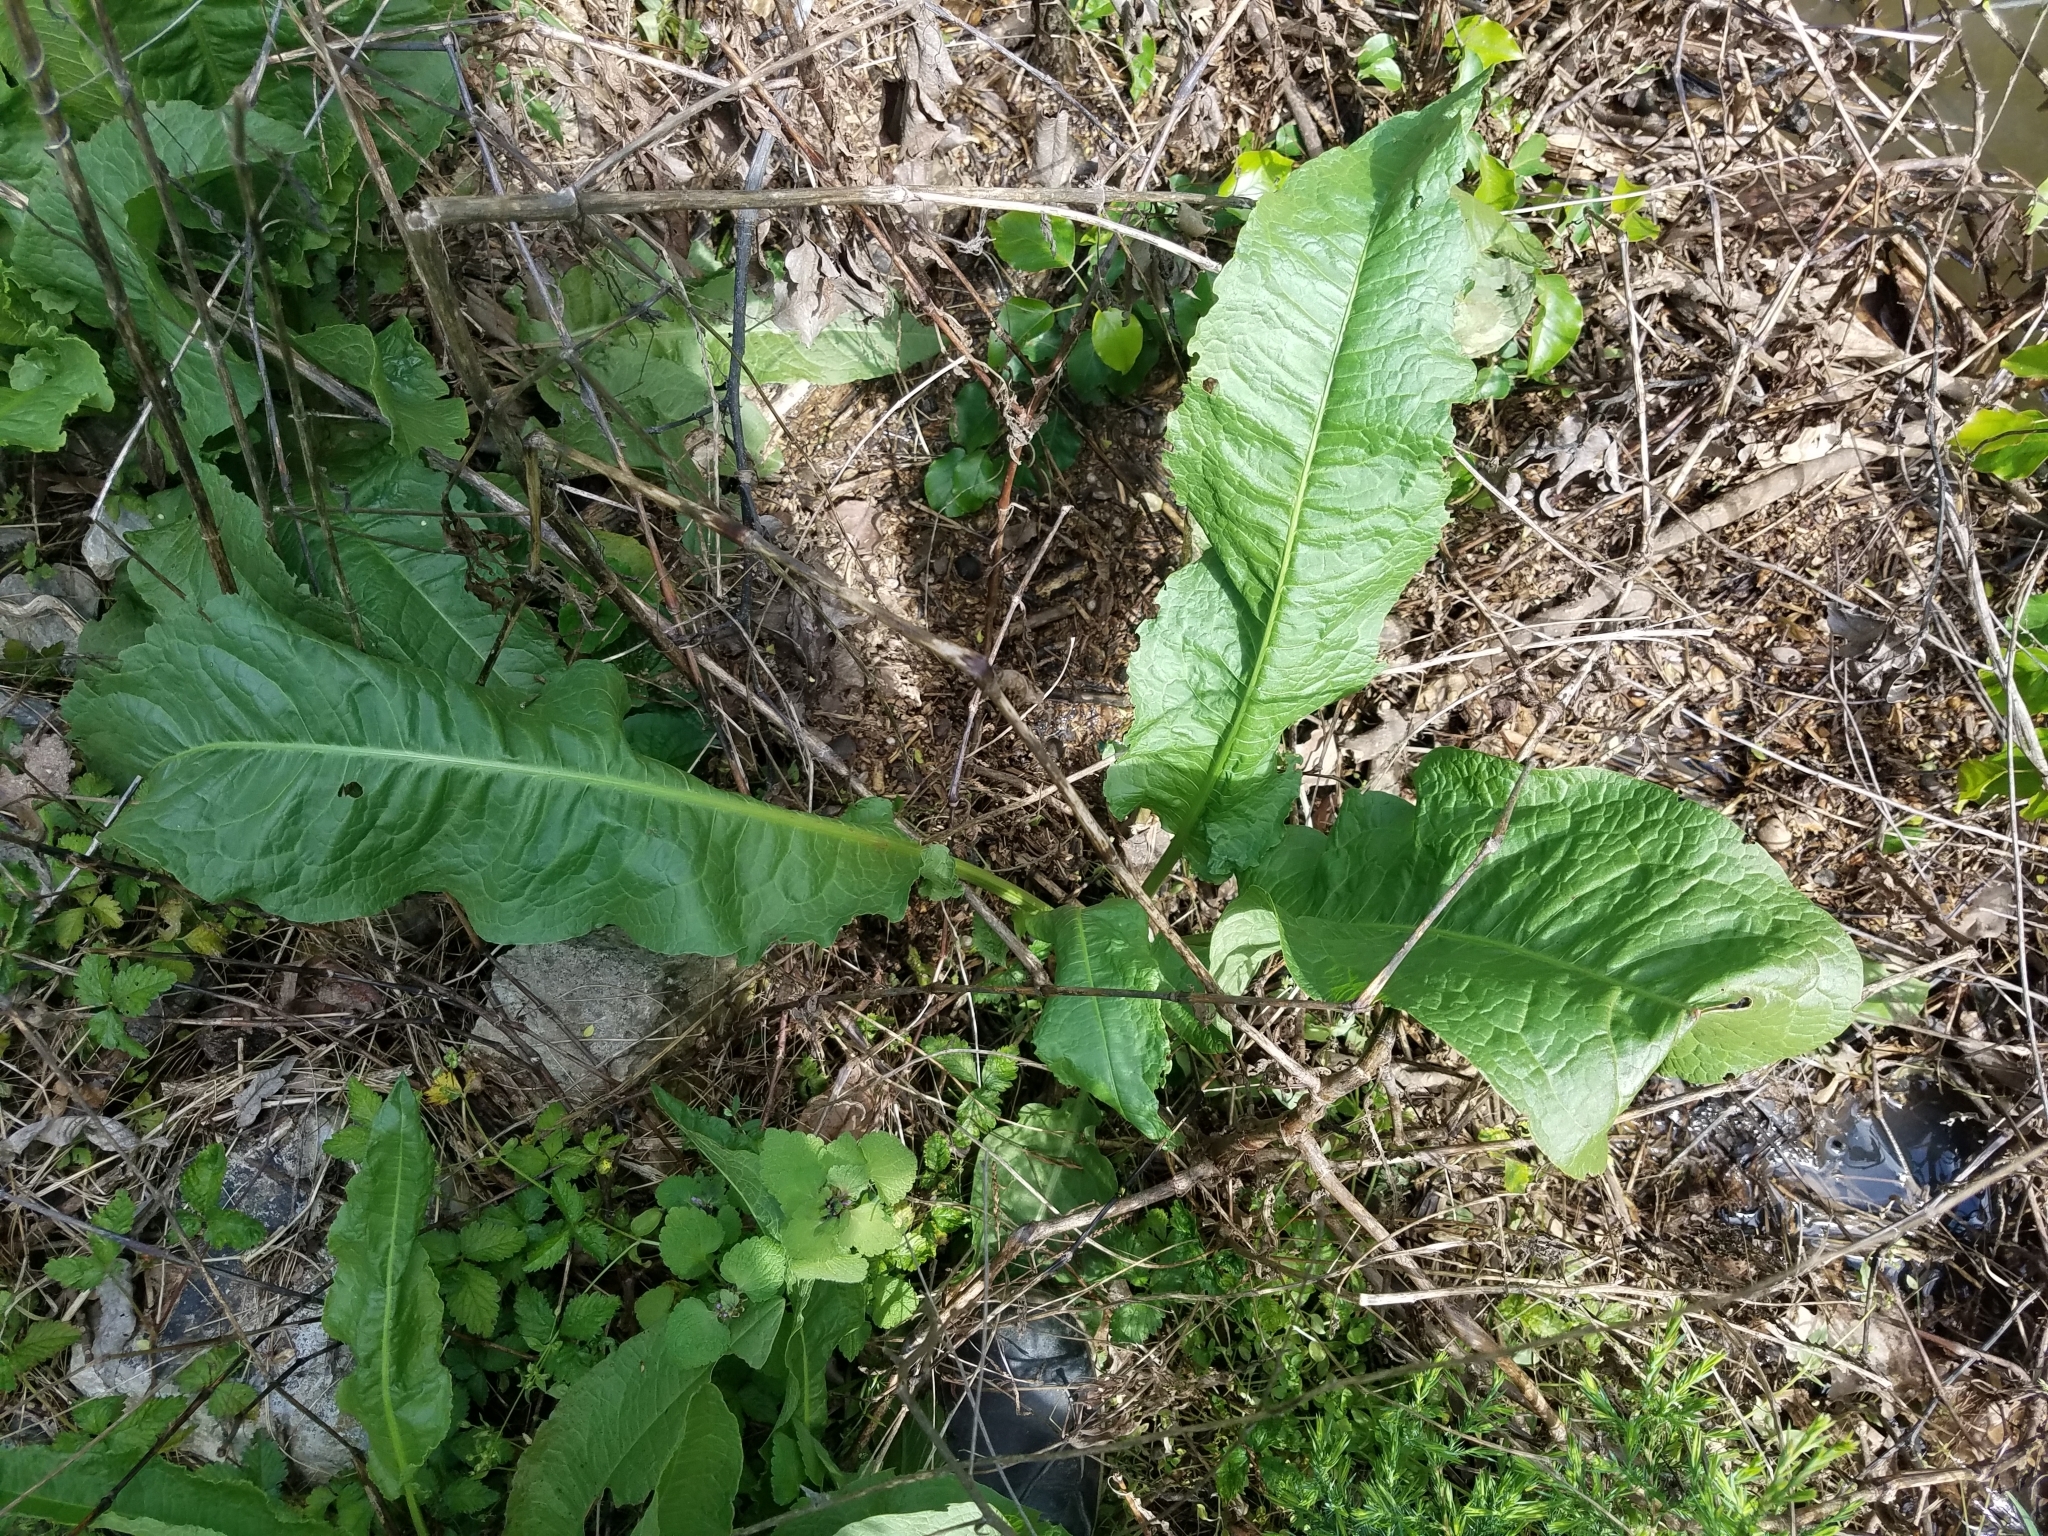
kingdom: Plantae
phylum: Tracheophyta
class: Magnoliopsida
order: Caryophyllales
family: Polygonaceae
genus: Rumex
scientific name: Rumex crispus
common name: Curled dock
